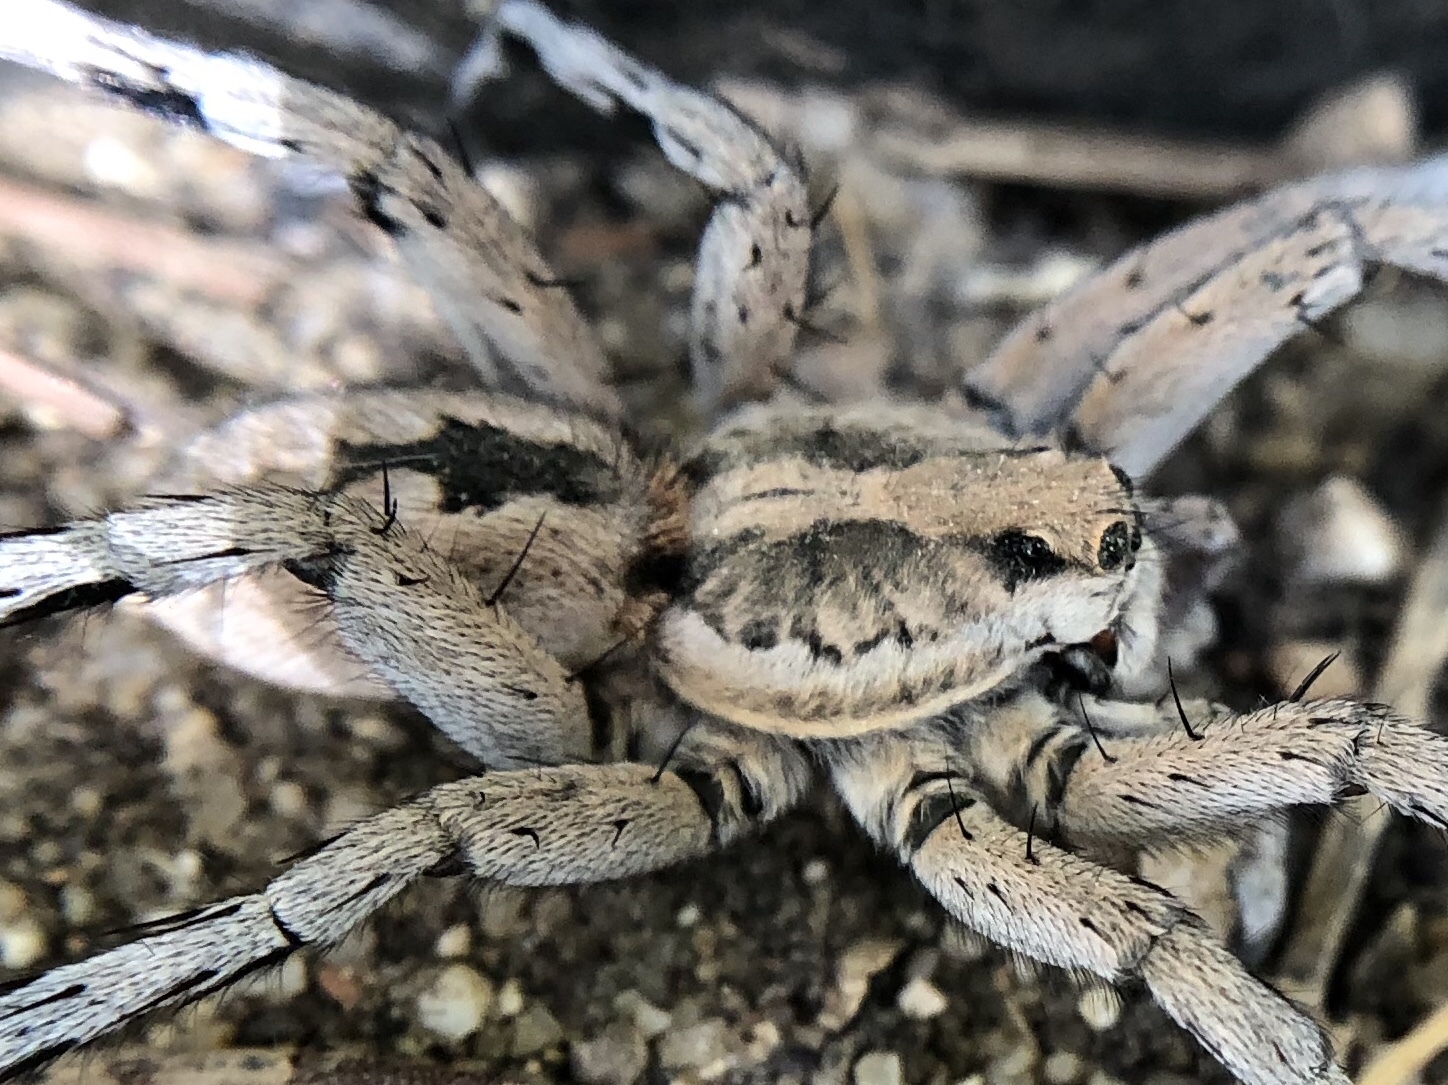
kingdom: Animalia
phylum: Arthropoda
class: Arachnida
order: Araneae
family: Lycosidae
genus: Lycosa
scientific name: Lycosa fasciiventris
